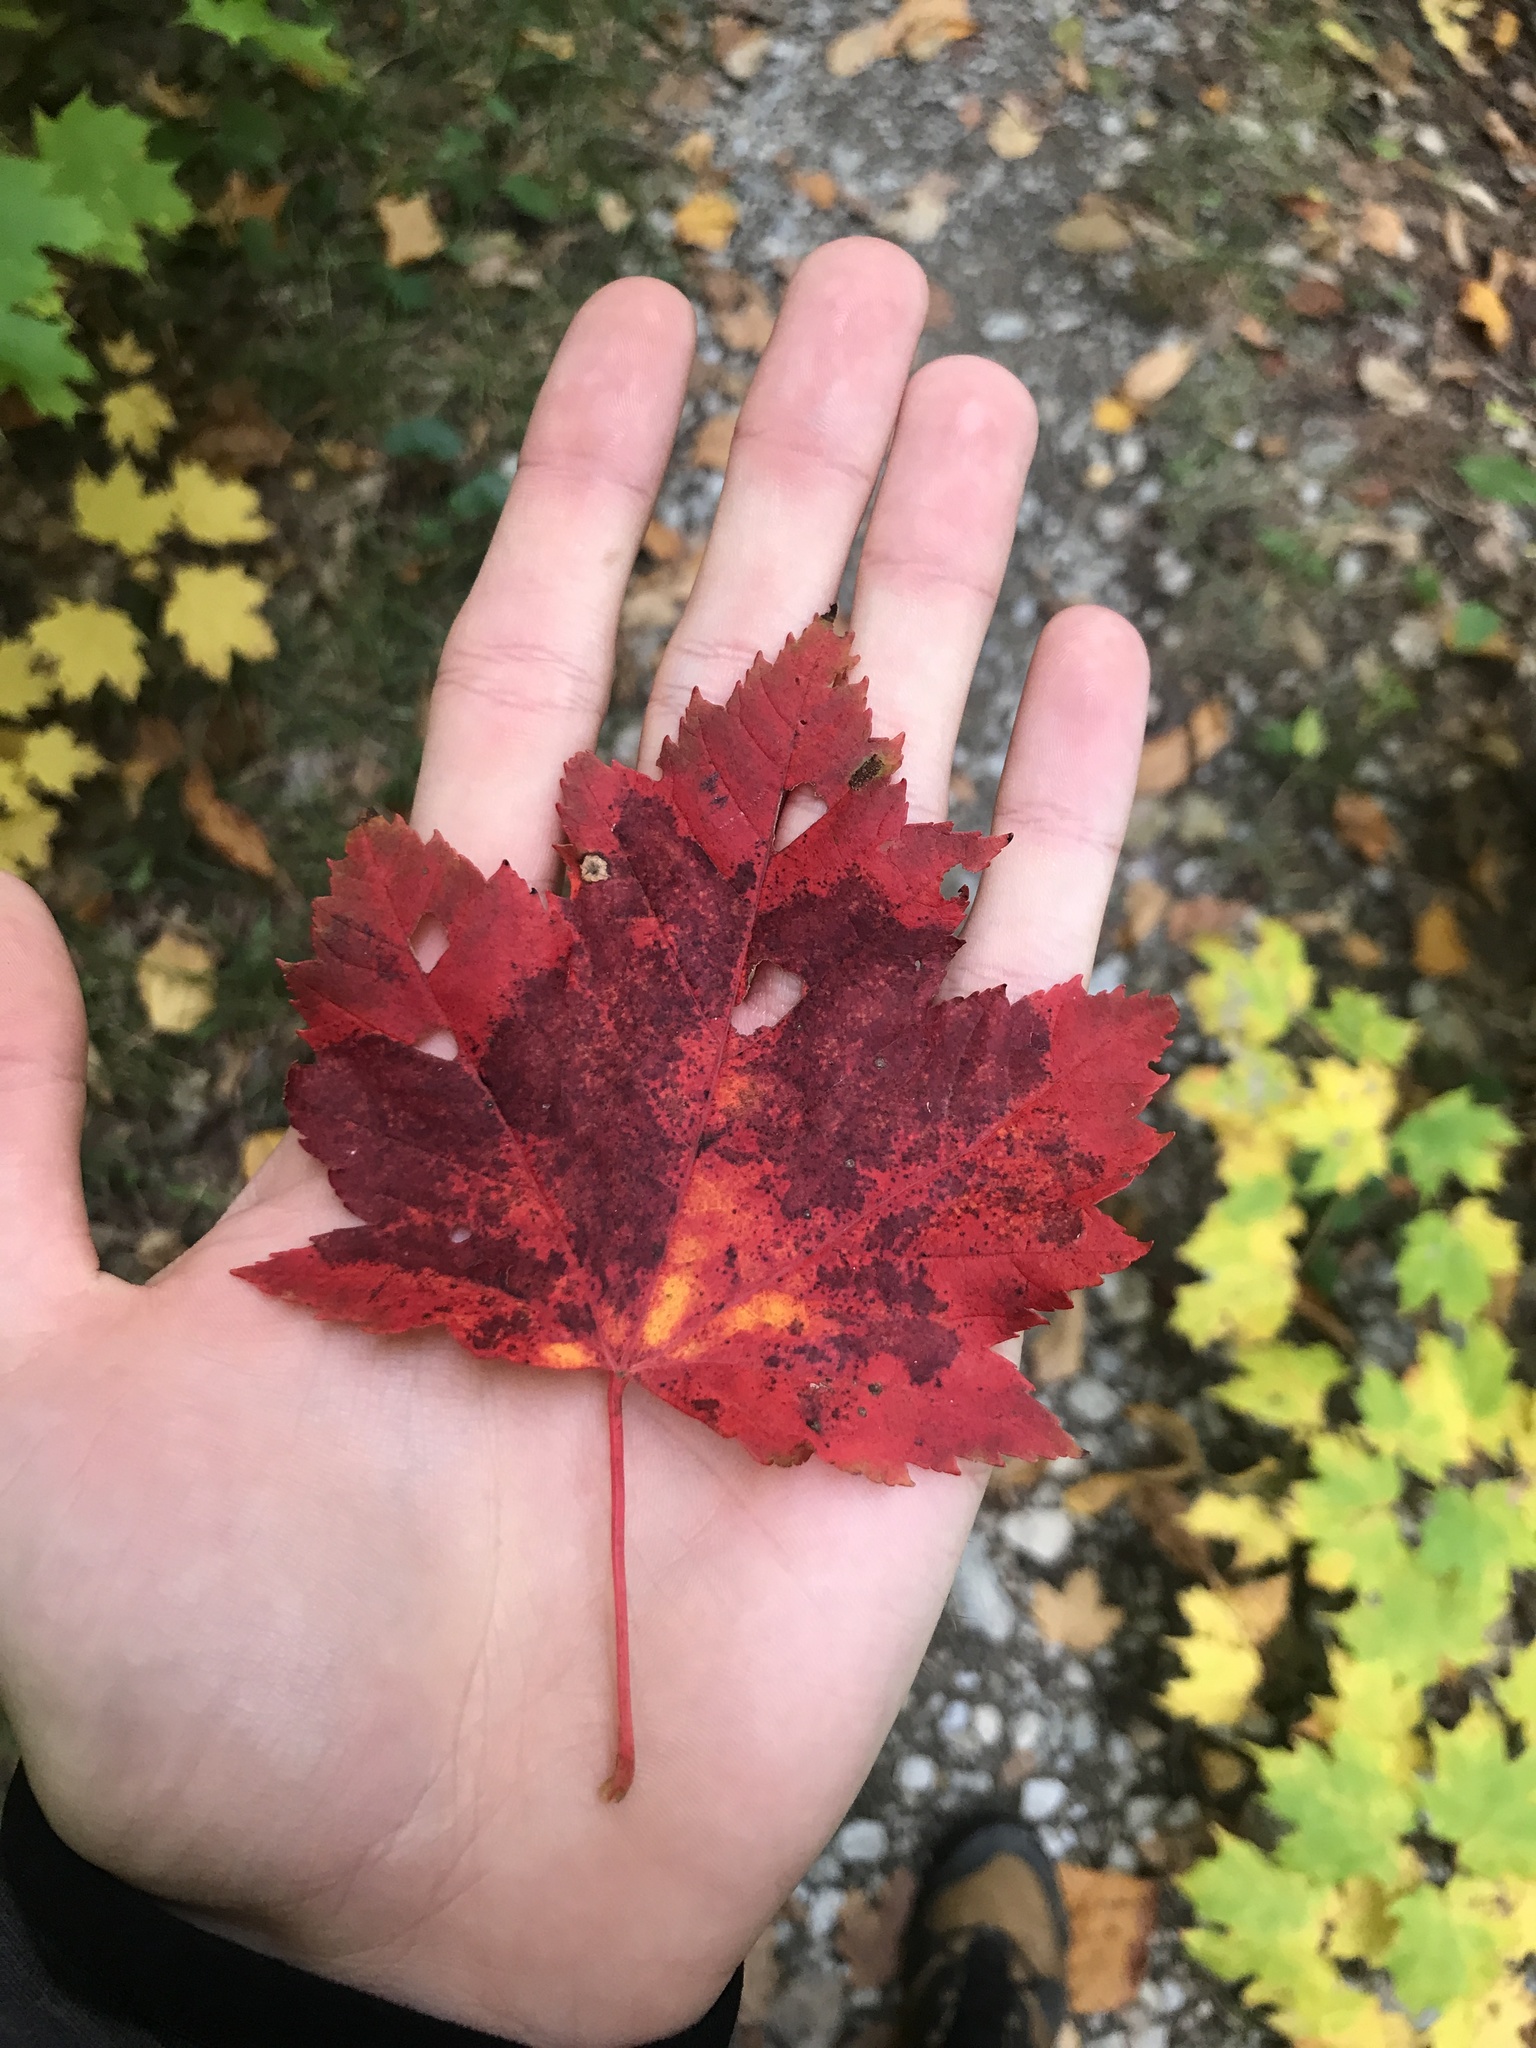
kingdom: Plantae
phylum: Tracheophyta
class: Magnoliopsida
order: Sapindales
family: Sapindaceae
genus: Acer
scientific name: Acer rubrum
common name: Red maple
